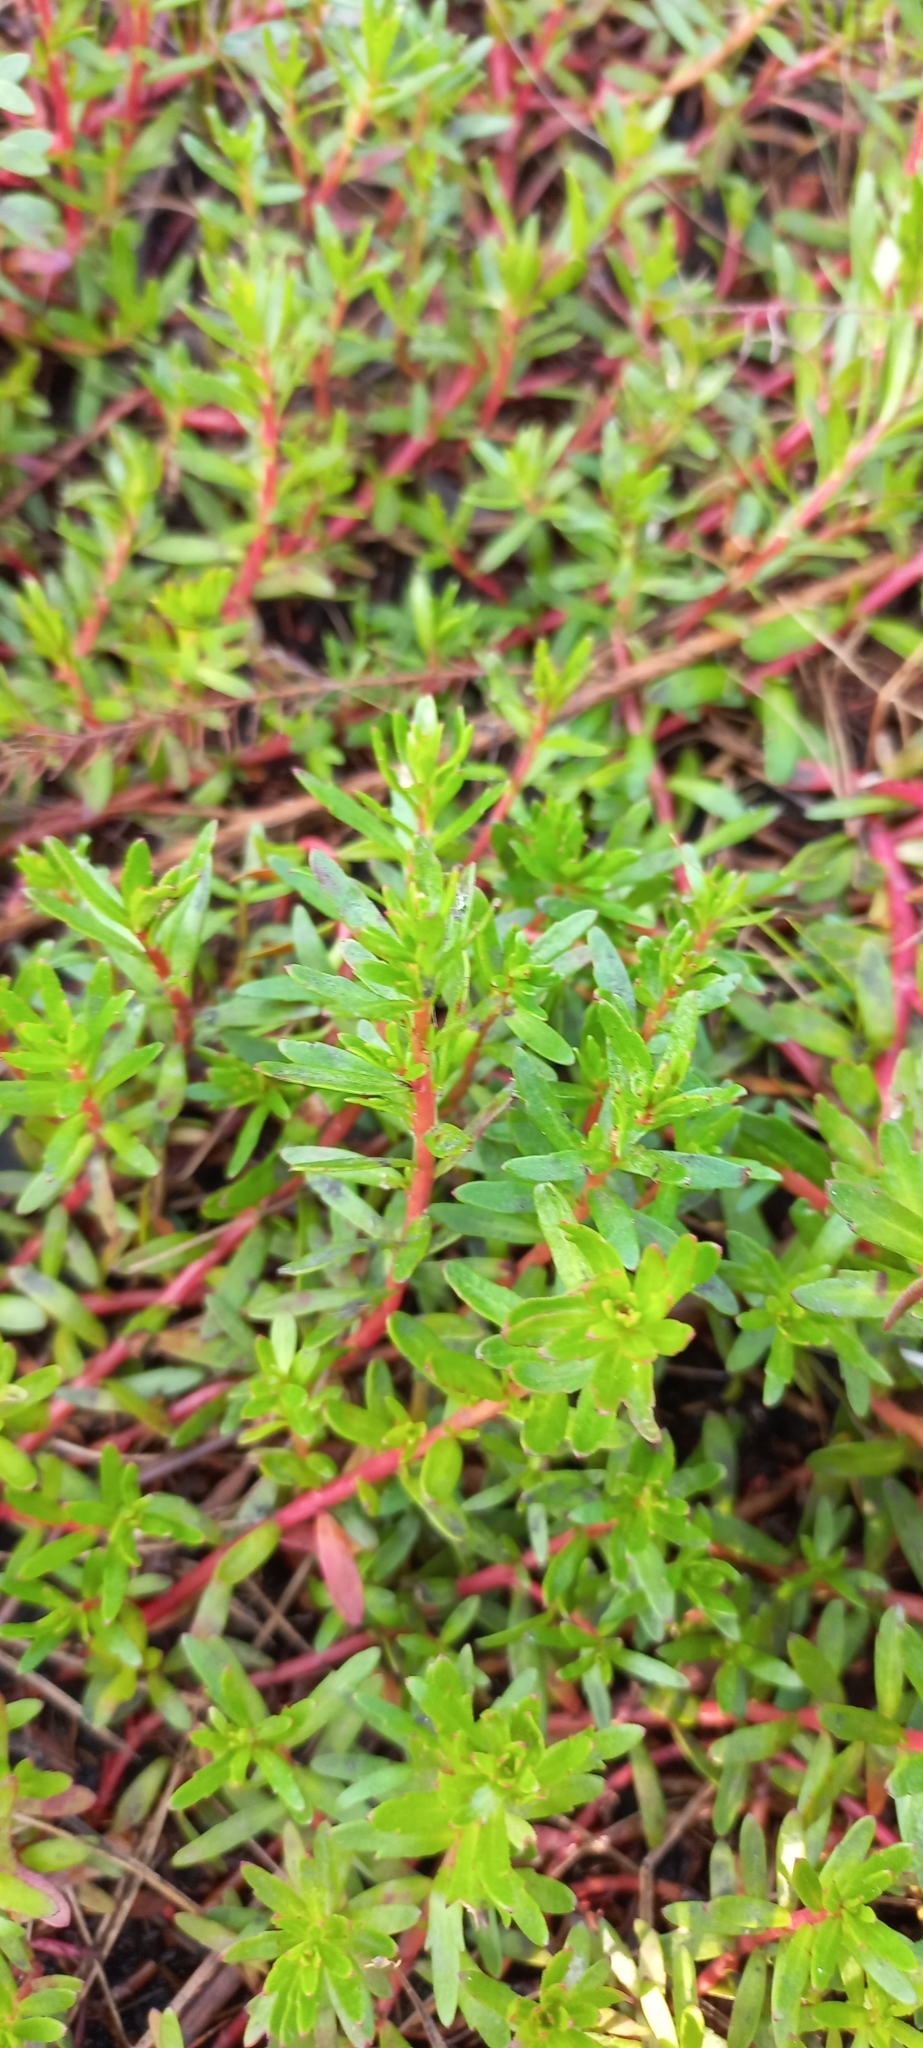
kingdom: Plantae
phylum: Tracheophyta
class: Magnoliopsida
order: Saxifragales
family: Haloragaceae
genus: Laurembergia
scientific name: Laurembergia repens
